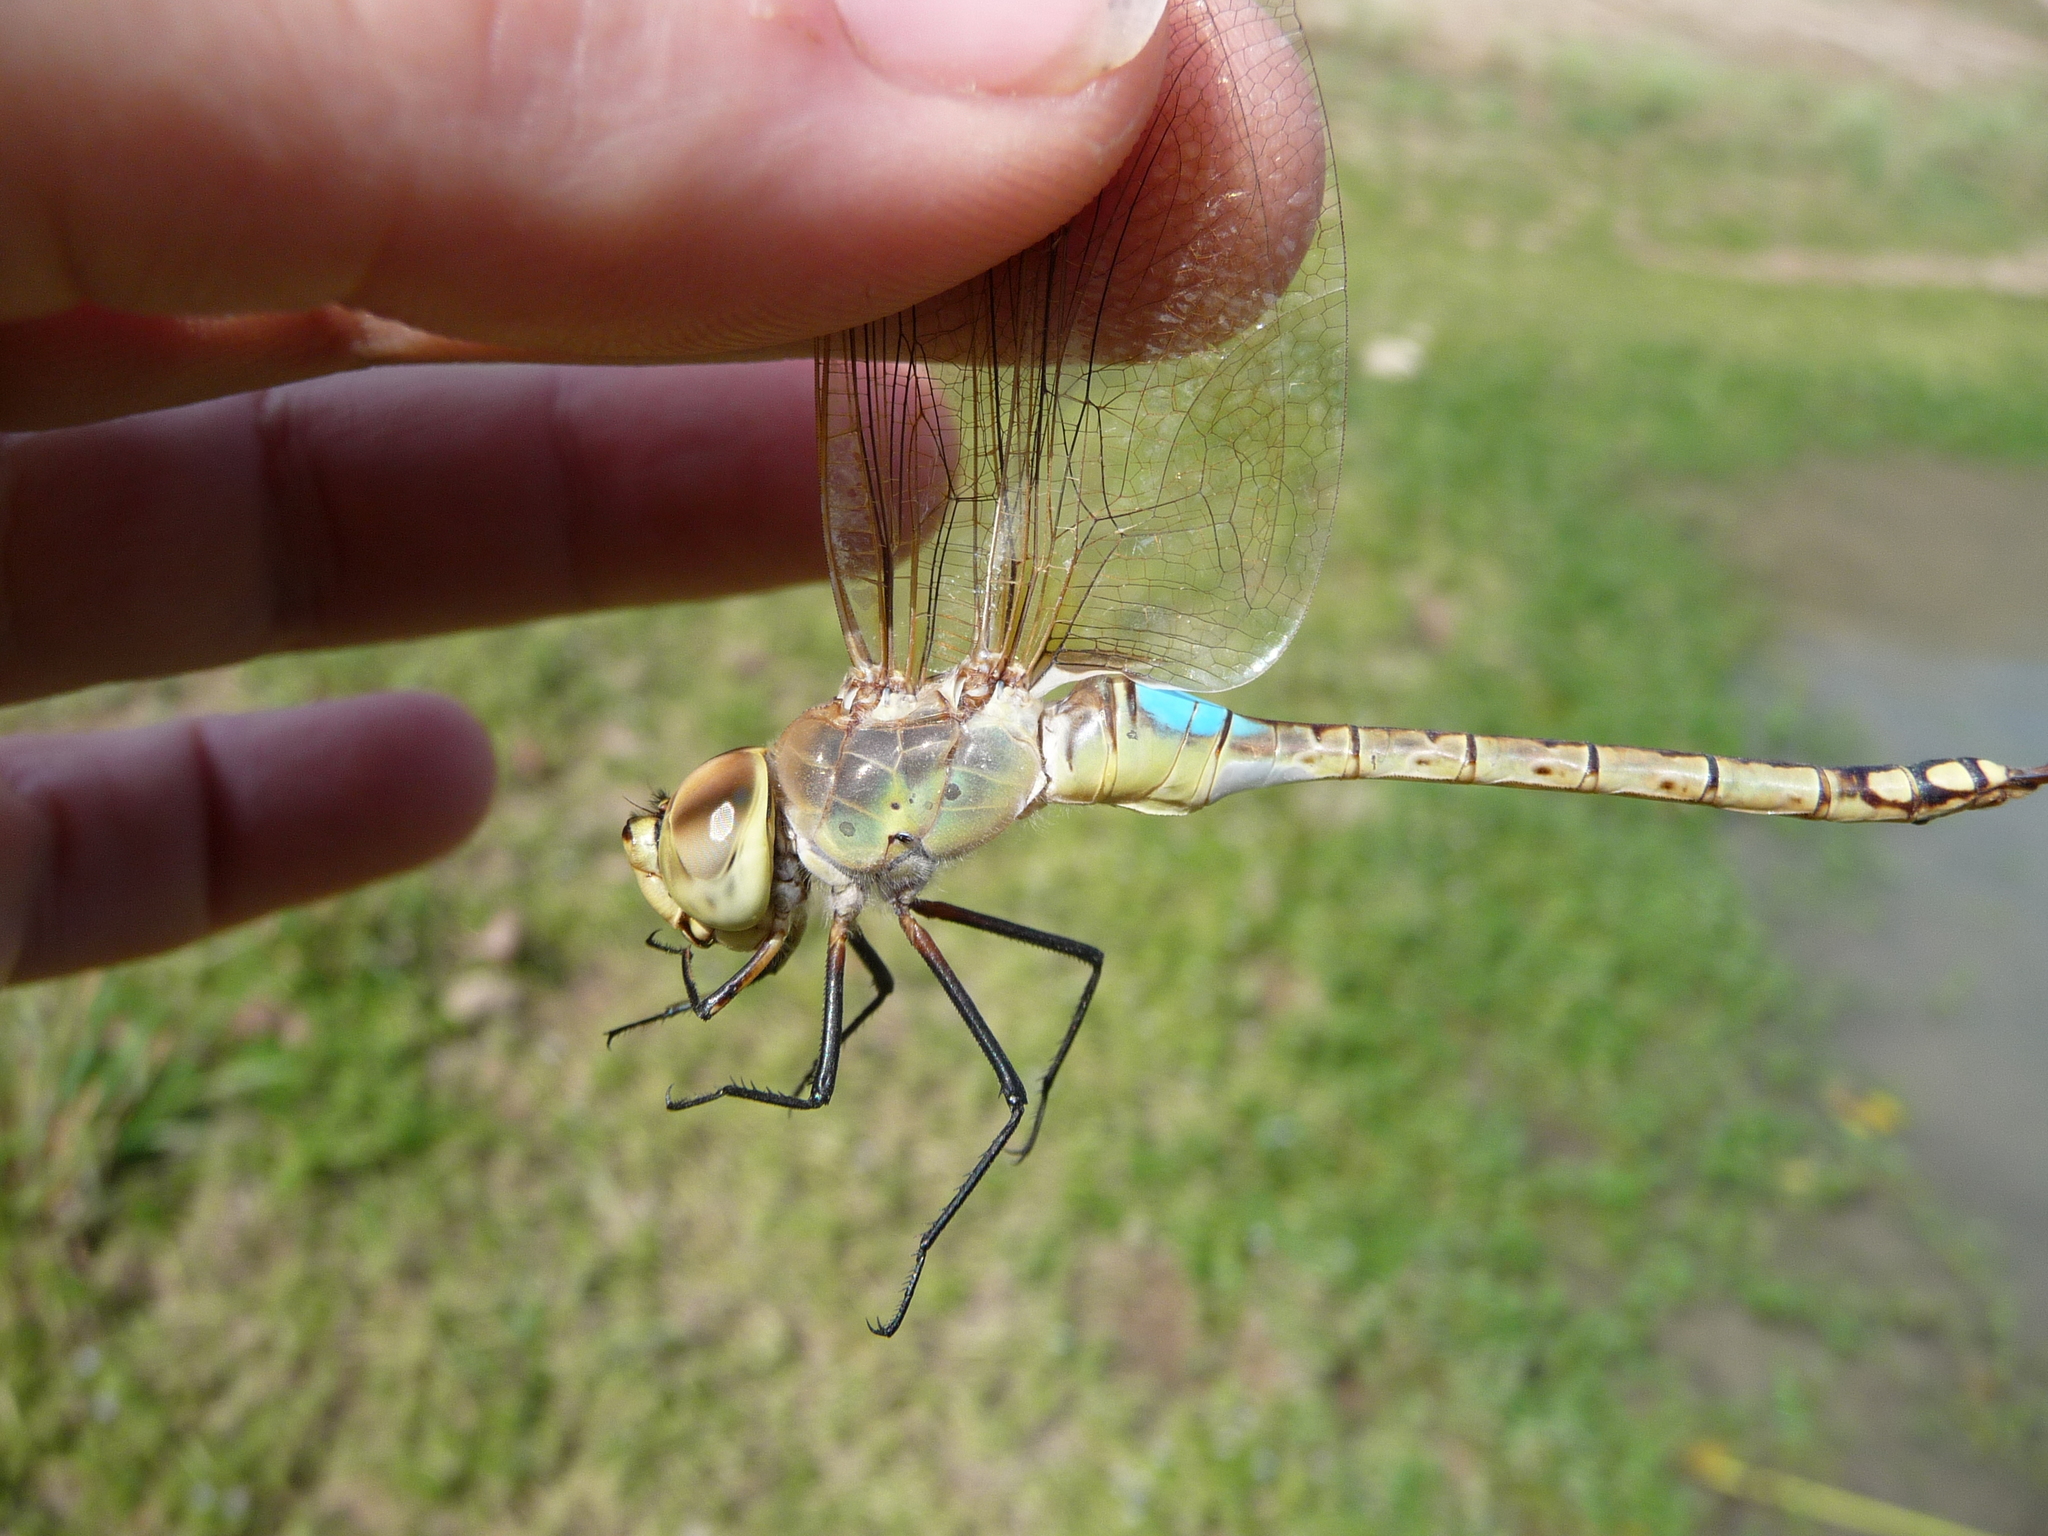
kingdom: Animalia
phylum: Arthropoda
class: Insecta
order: Odonata
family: Aeshnidae
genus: Anax
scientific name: Anax ephippiger
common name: Vagrant emperor
